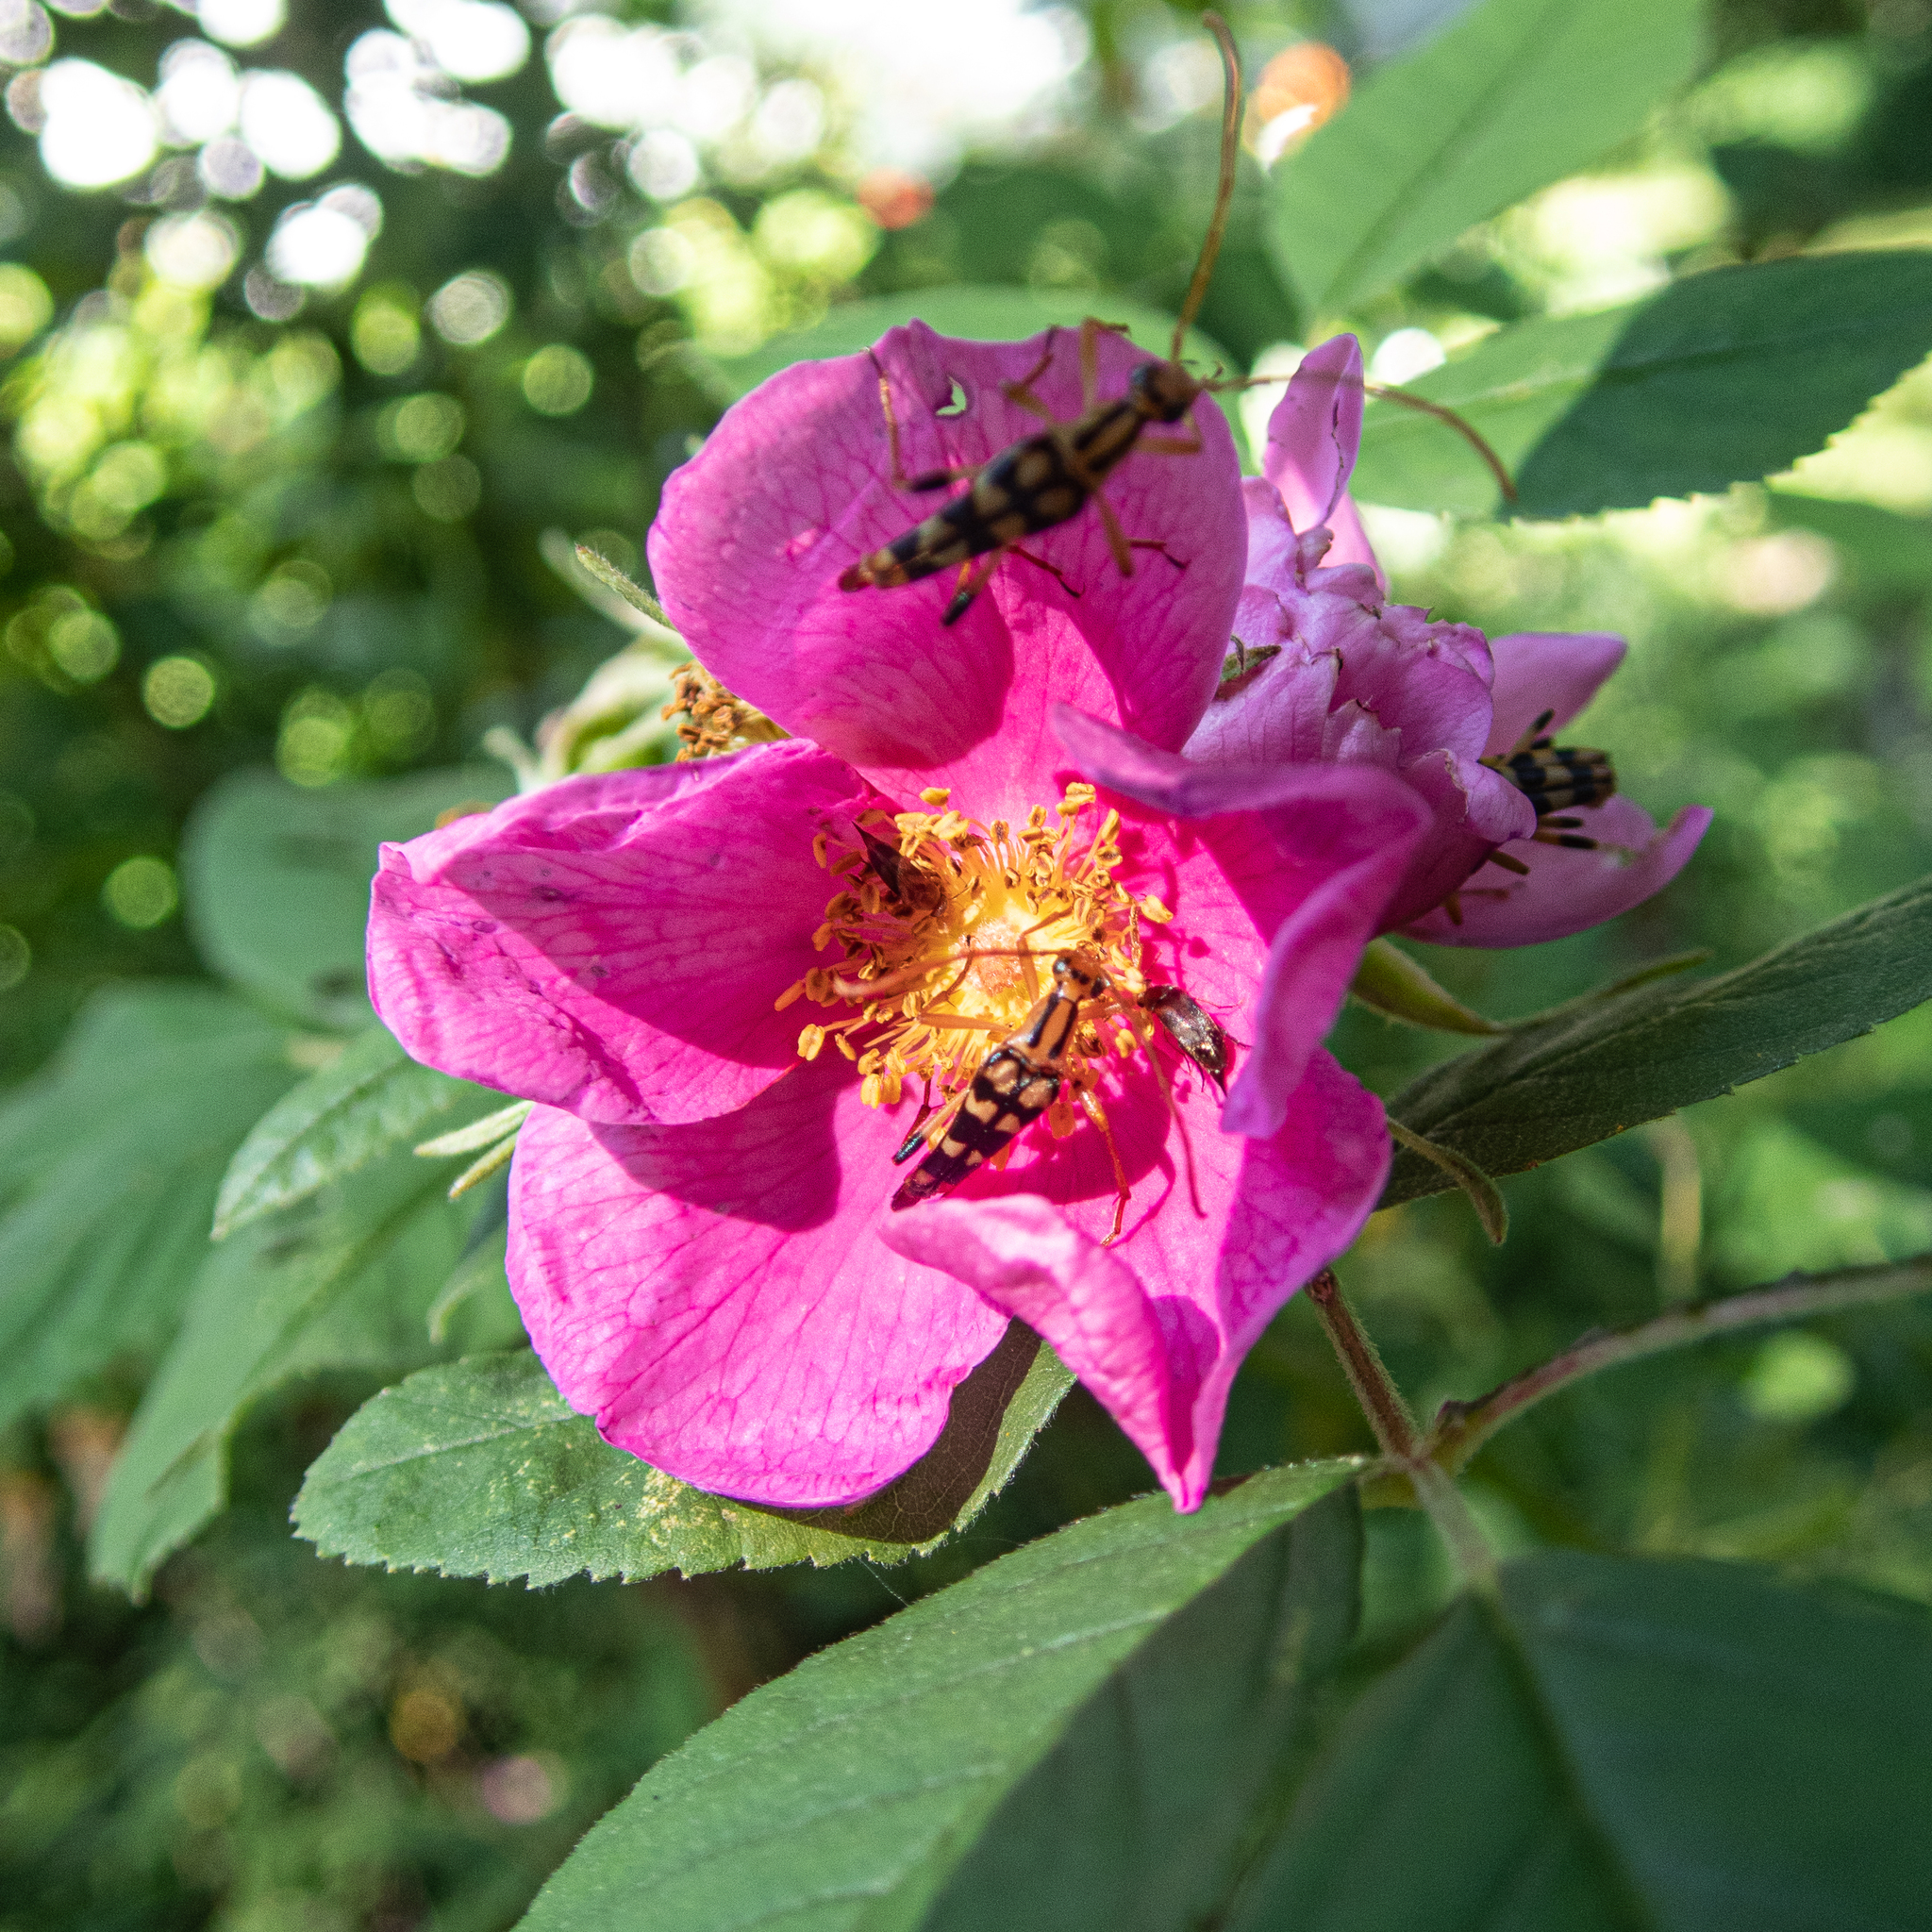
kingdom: Animalia
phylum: Arthropoda
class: Insecta
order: Coleoptera
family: Cerambycidae
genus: Strangalia
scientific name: Strangalia luteicornis
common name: Yellow-horned flower longhorn beetle
